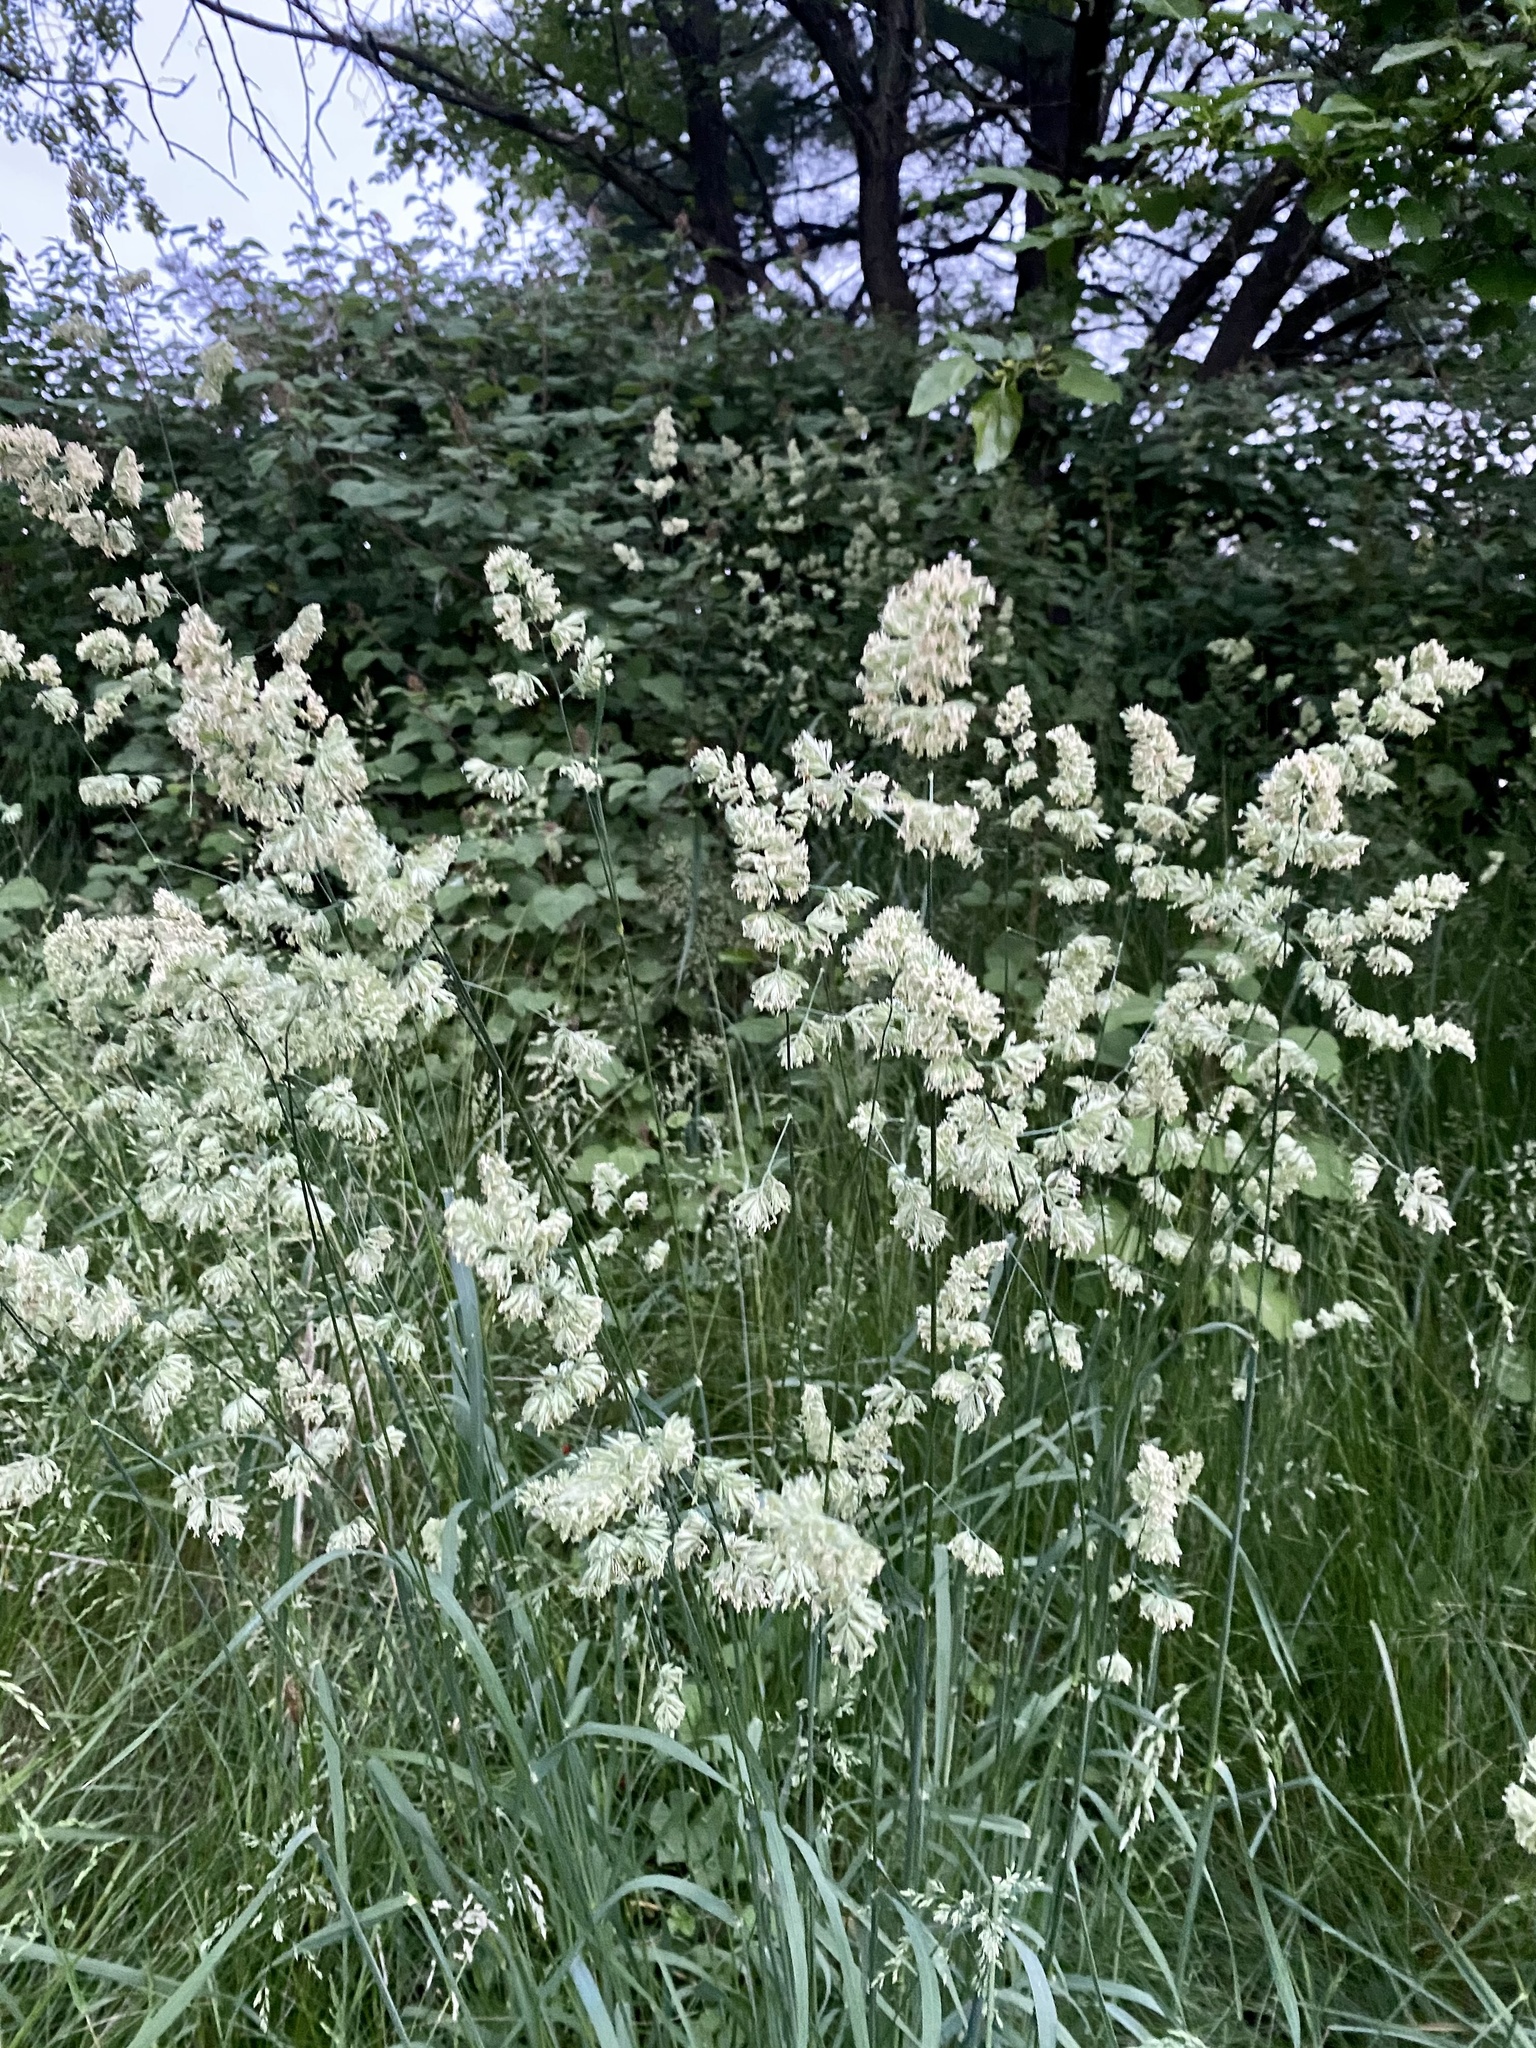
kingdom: Plantae
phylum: Tracheophyta
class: Liliopsida
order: Poales
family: Poaceae
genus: Dactylis
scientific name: Dactylis glomerata
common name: Orchardgrass
